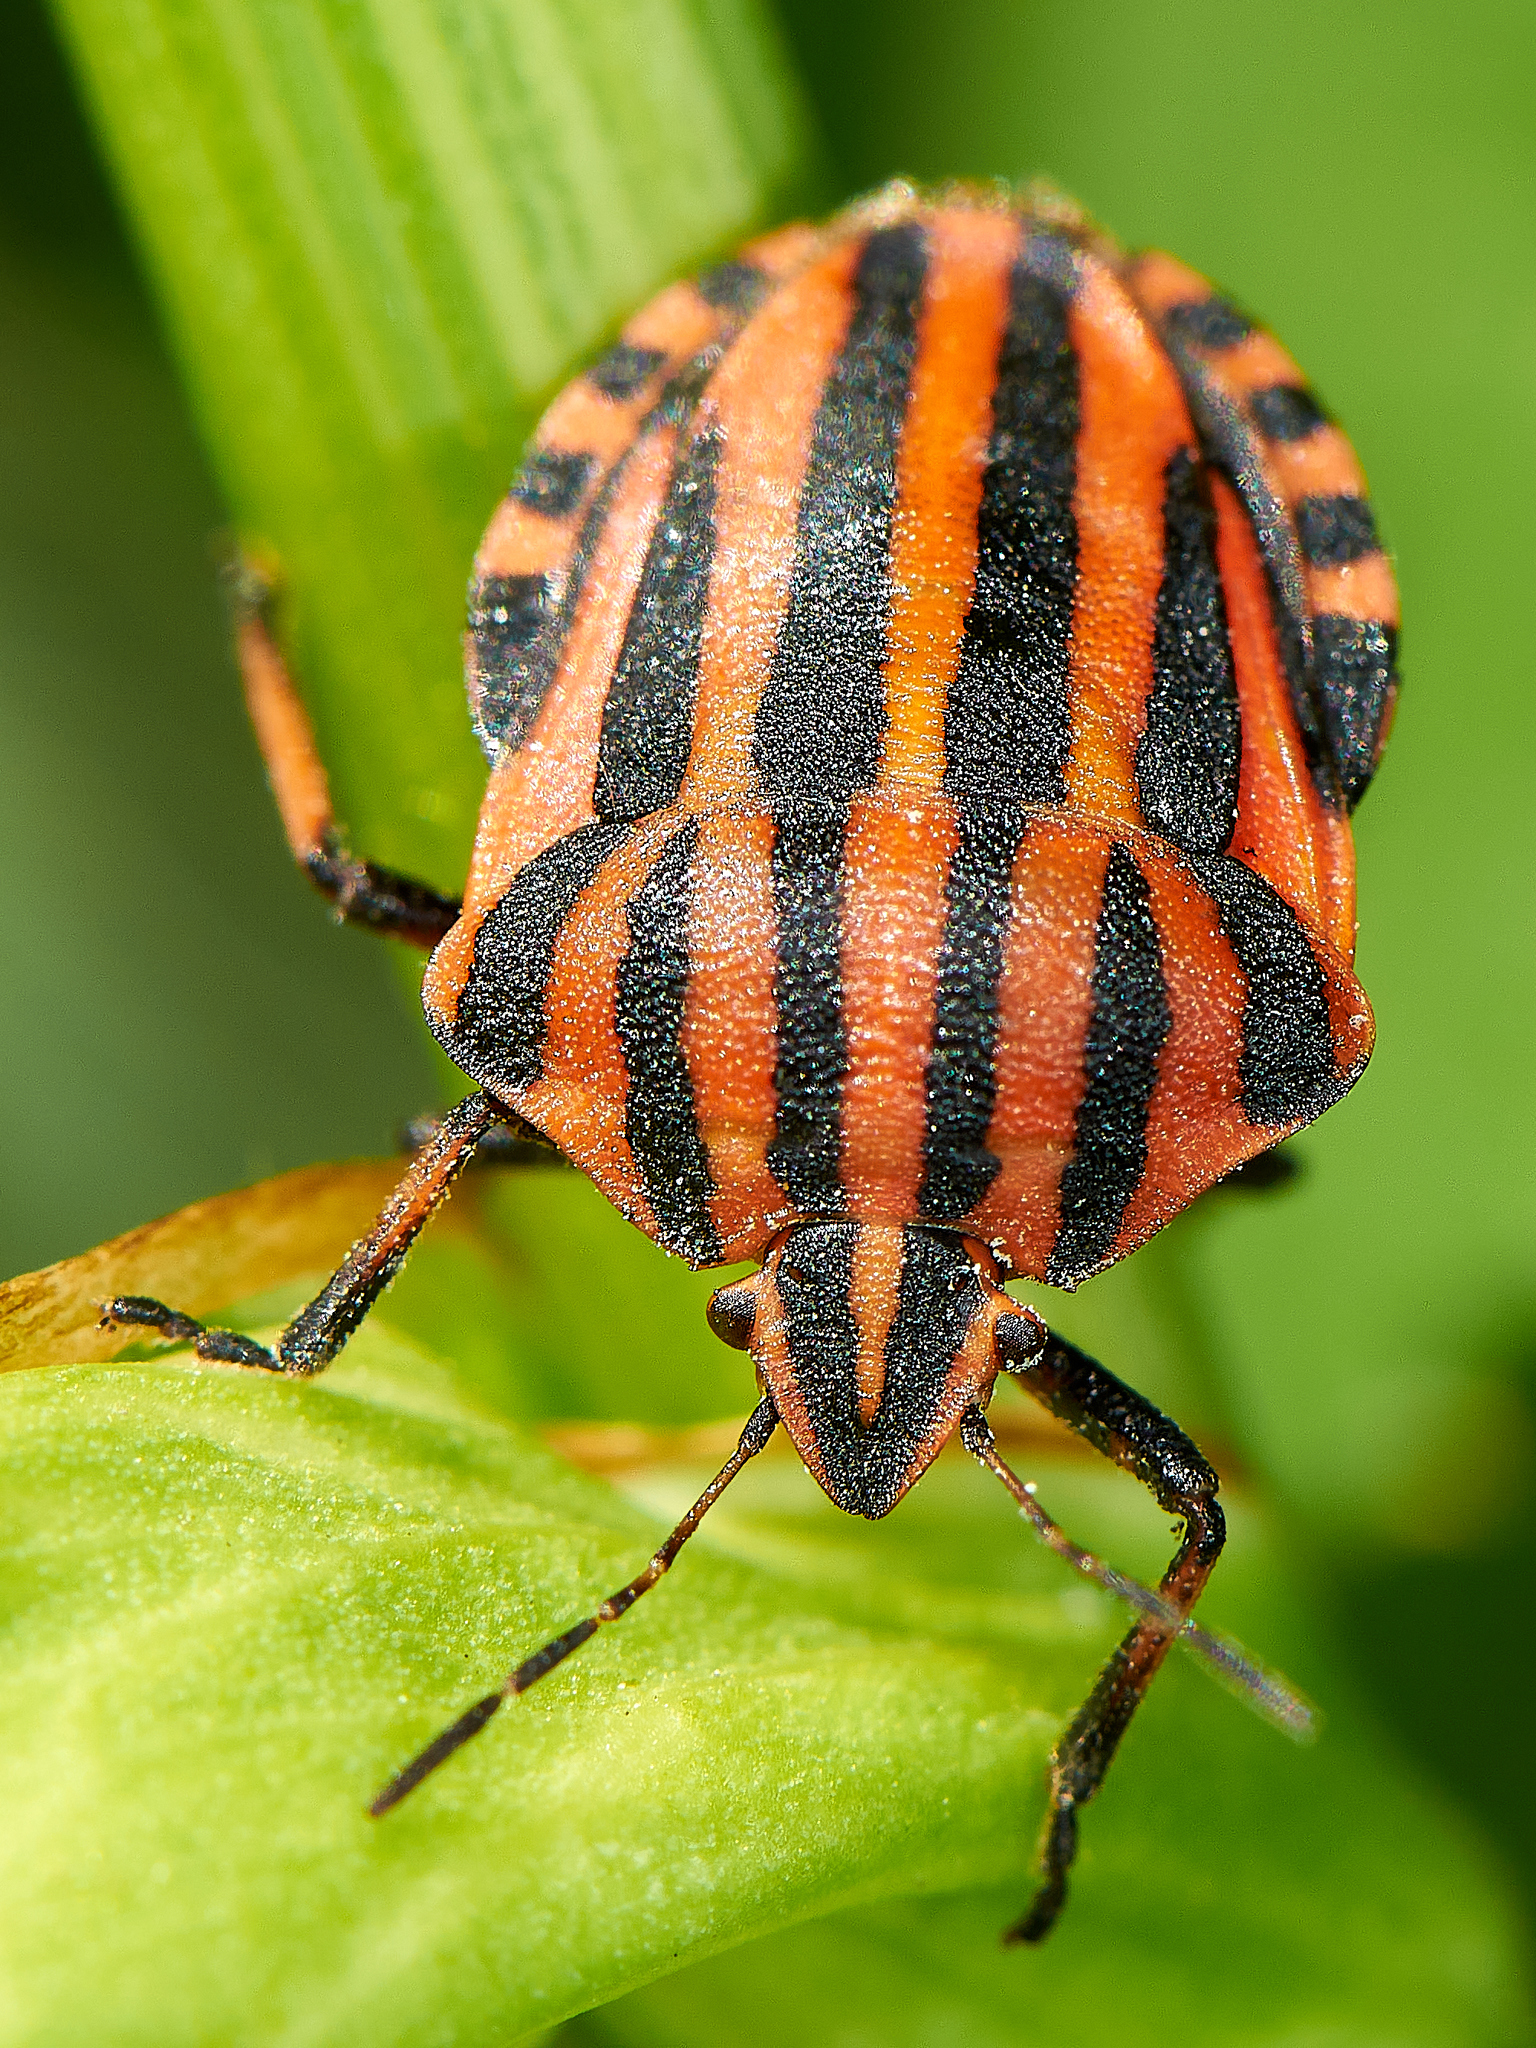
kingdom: Animalia
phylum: Arthropoda
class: Insecta
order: Hemiptera
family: Pentatomidae
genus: Graphosoma
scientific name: Graphosoma italicum
